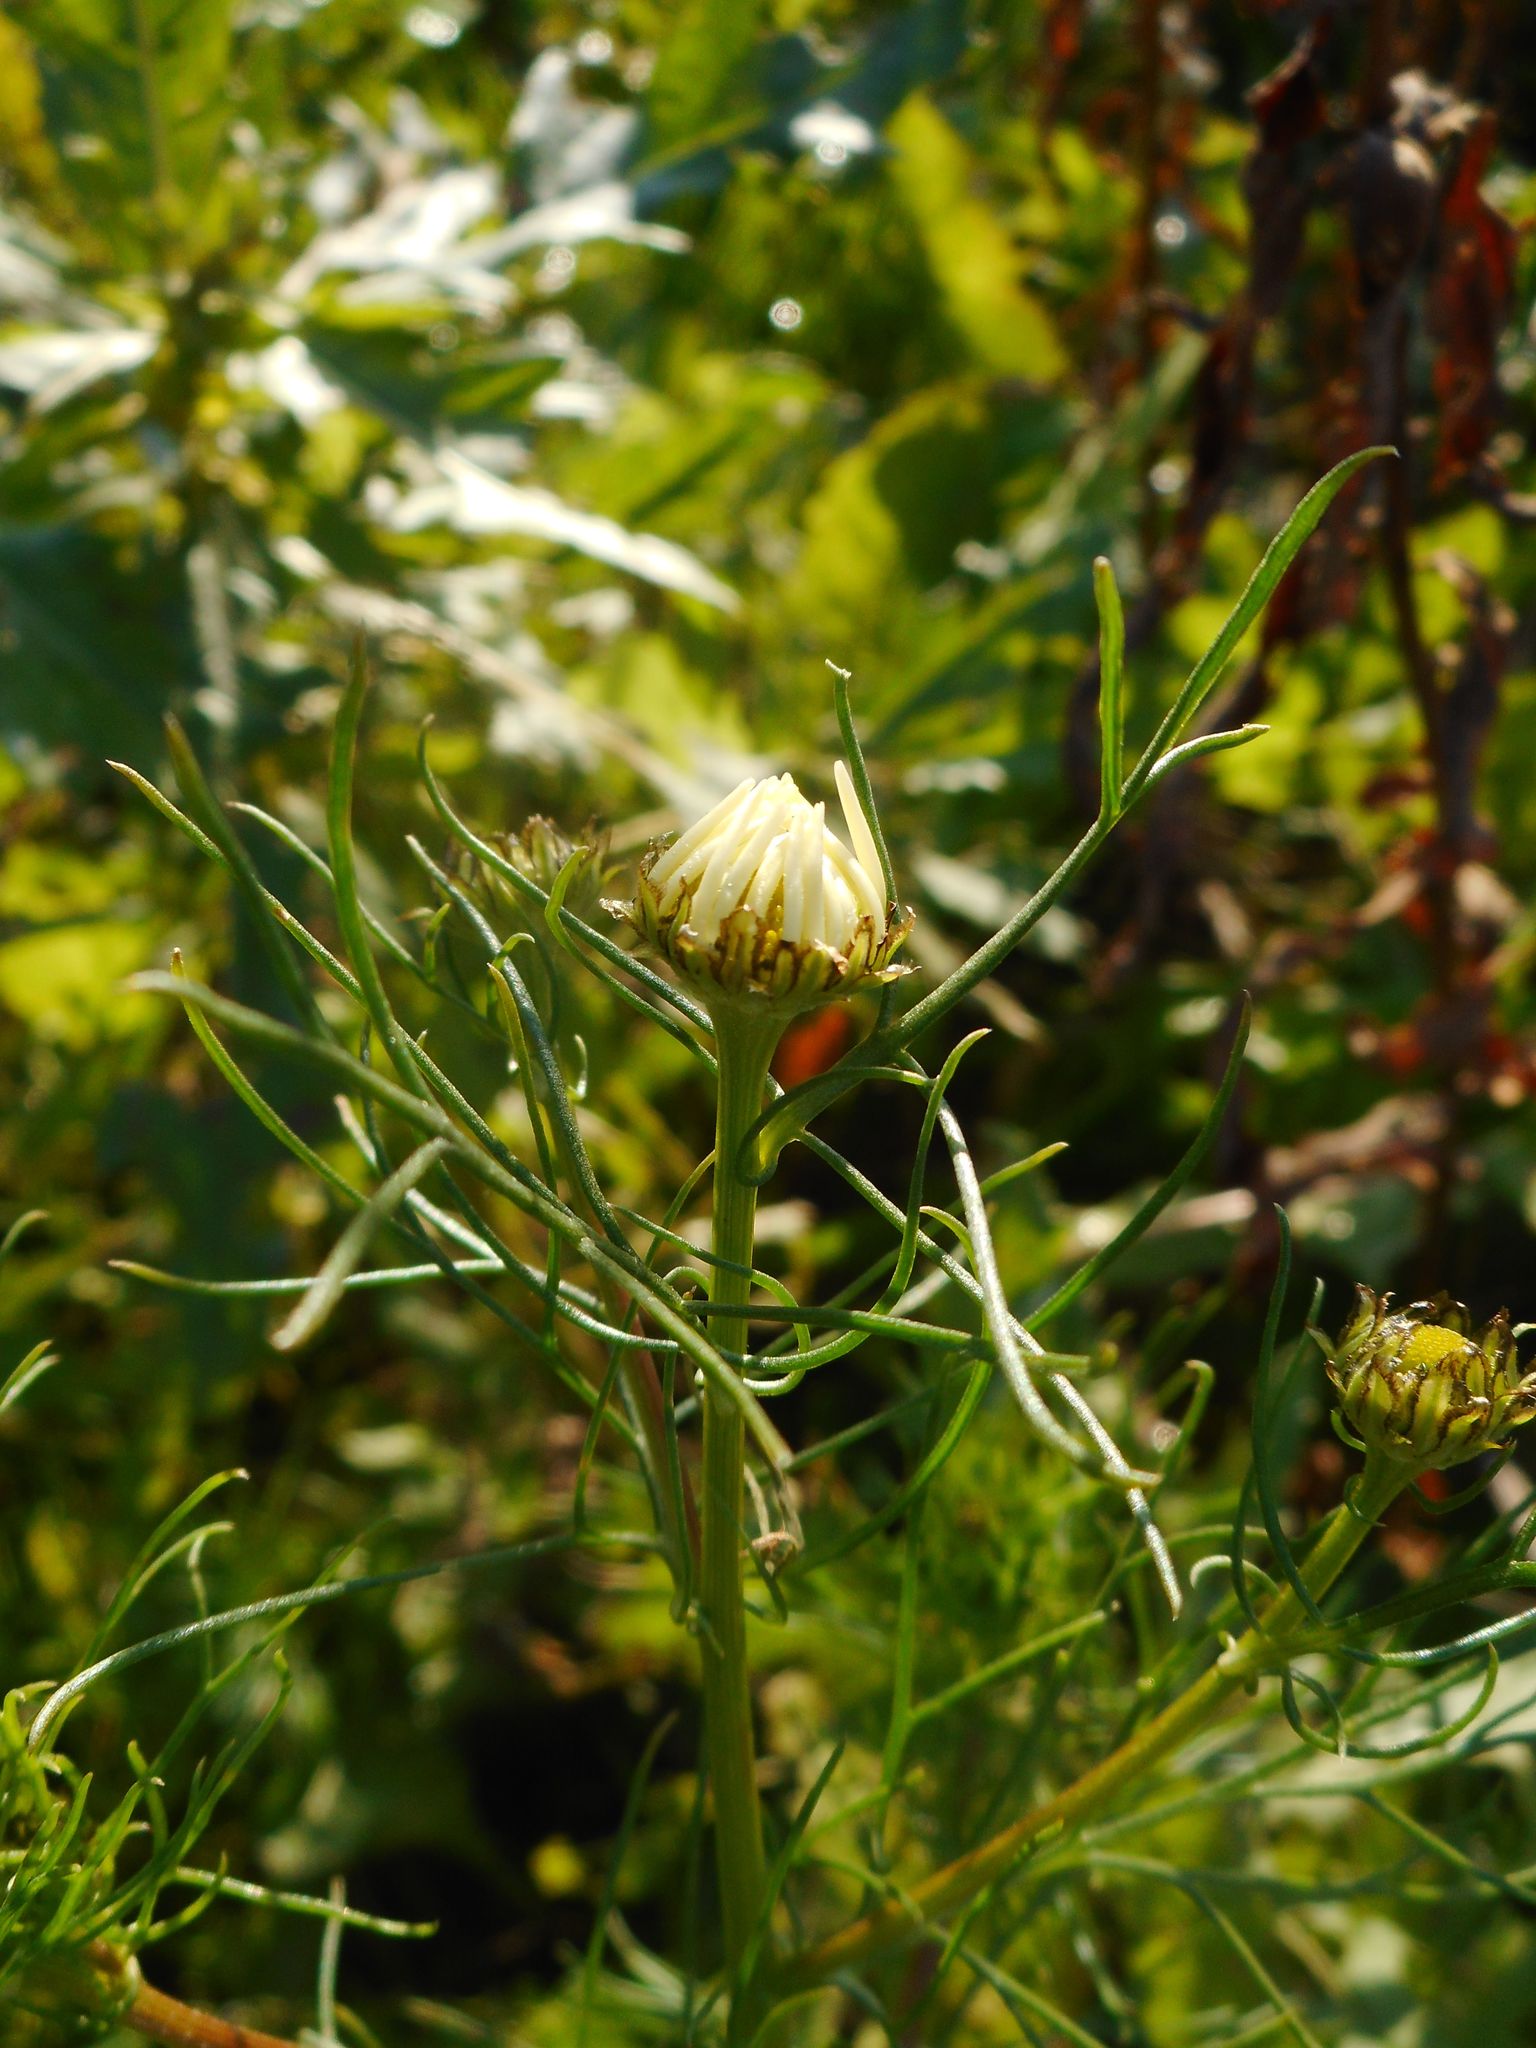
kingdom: Plantae
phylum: Tracheophyta
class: Magnoliopsida
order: Asterales
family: Asteraceae
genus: Tripleurospermum
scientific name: Tripleurospermum inodorum
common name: Scentless mayweed
